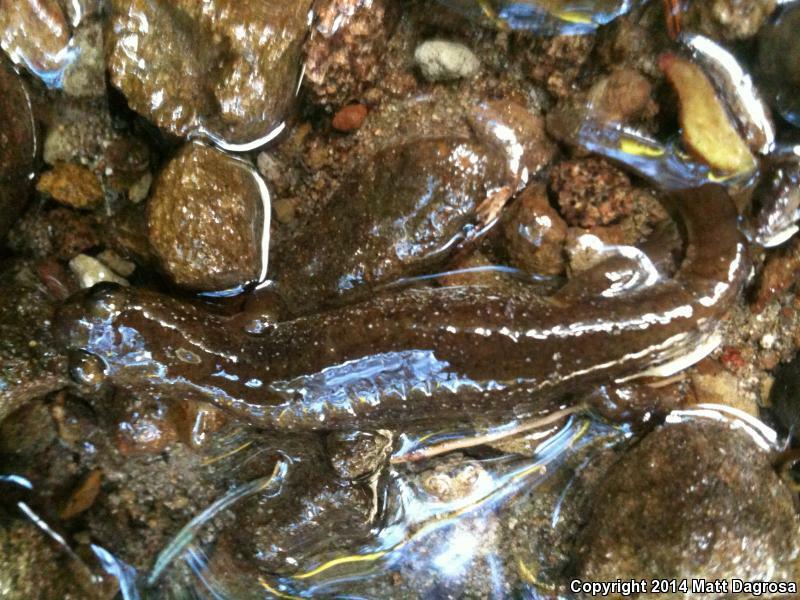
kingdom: Animalia
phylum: Chordata
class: Amphibia
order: Caudata
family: Rhyacotritonidae
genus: Rhyacotriton
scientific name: Rhyacotriton variegatus
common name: Southern torrent salamander
